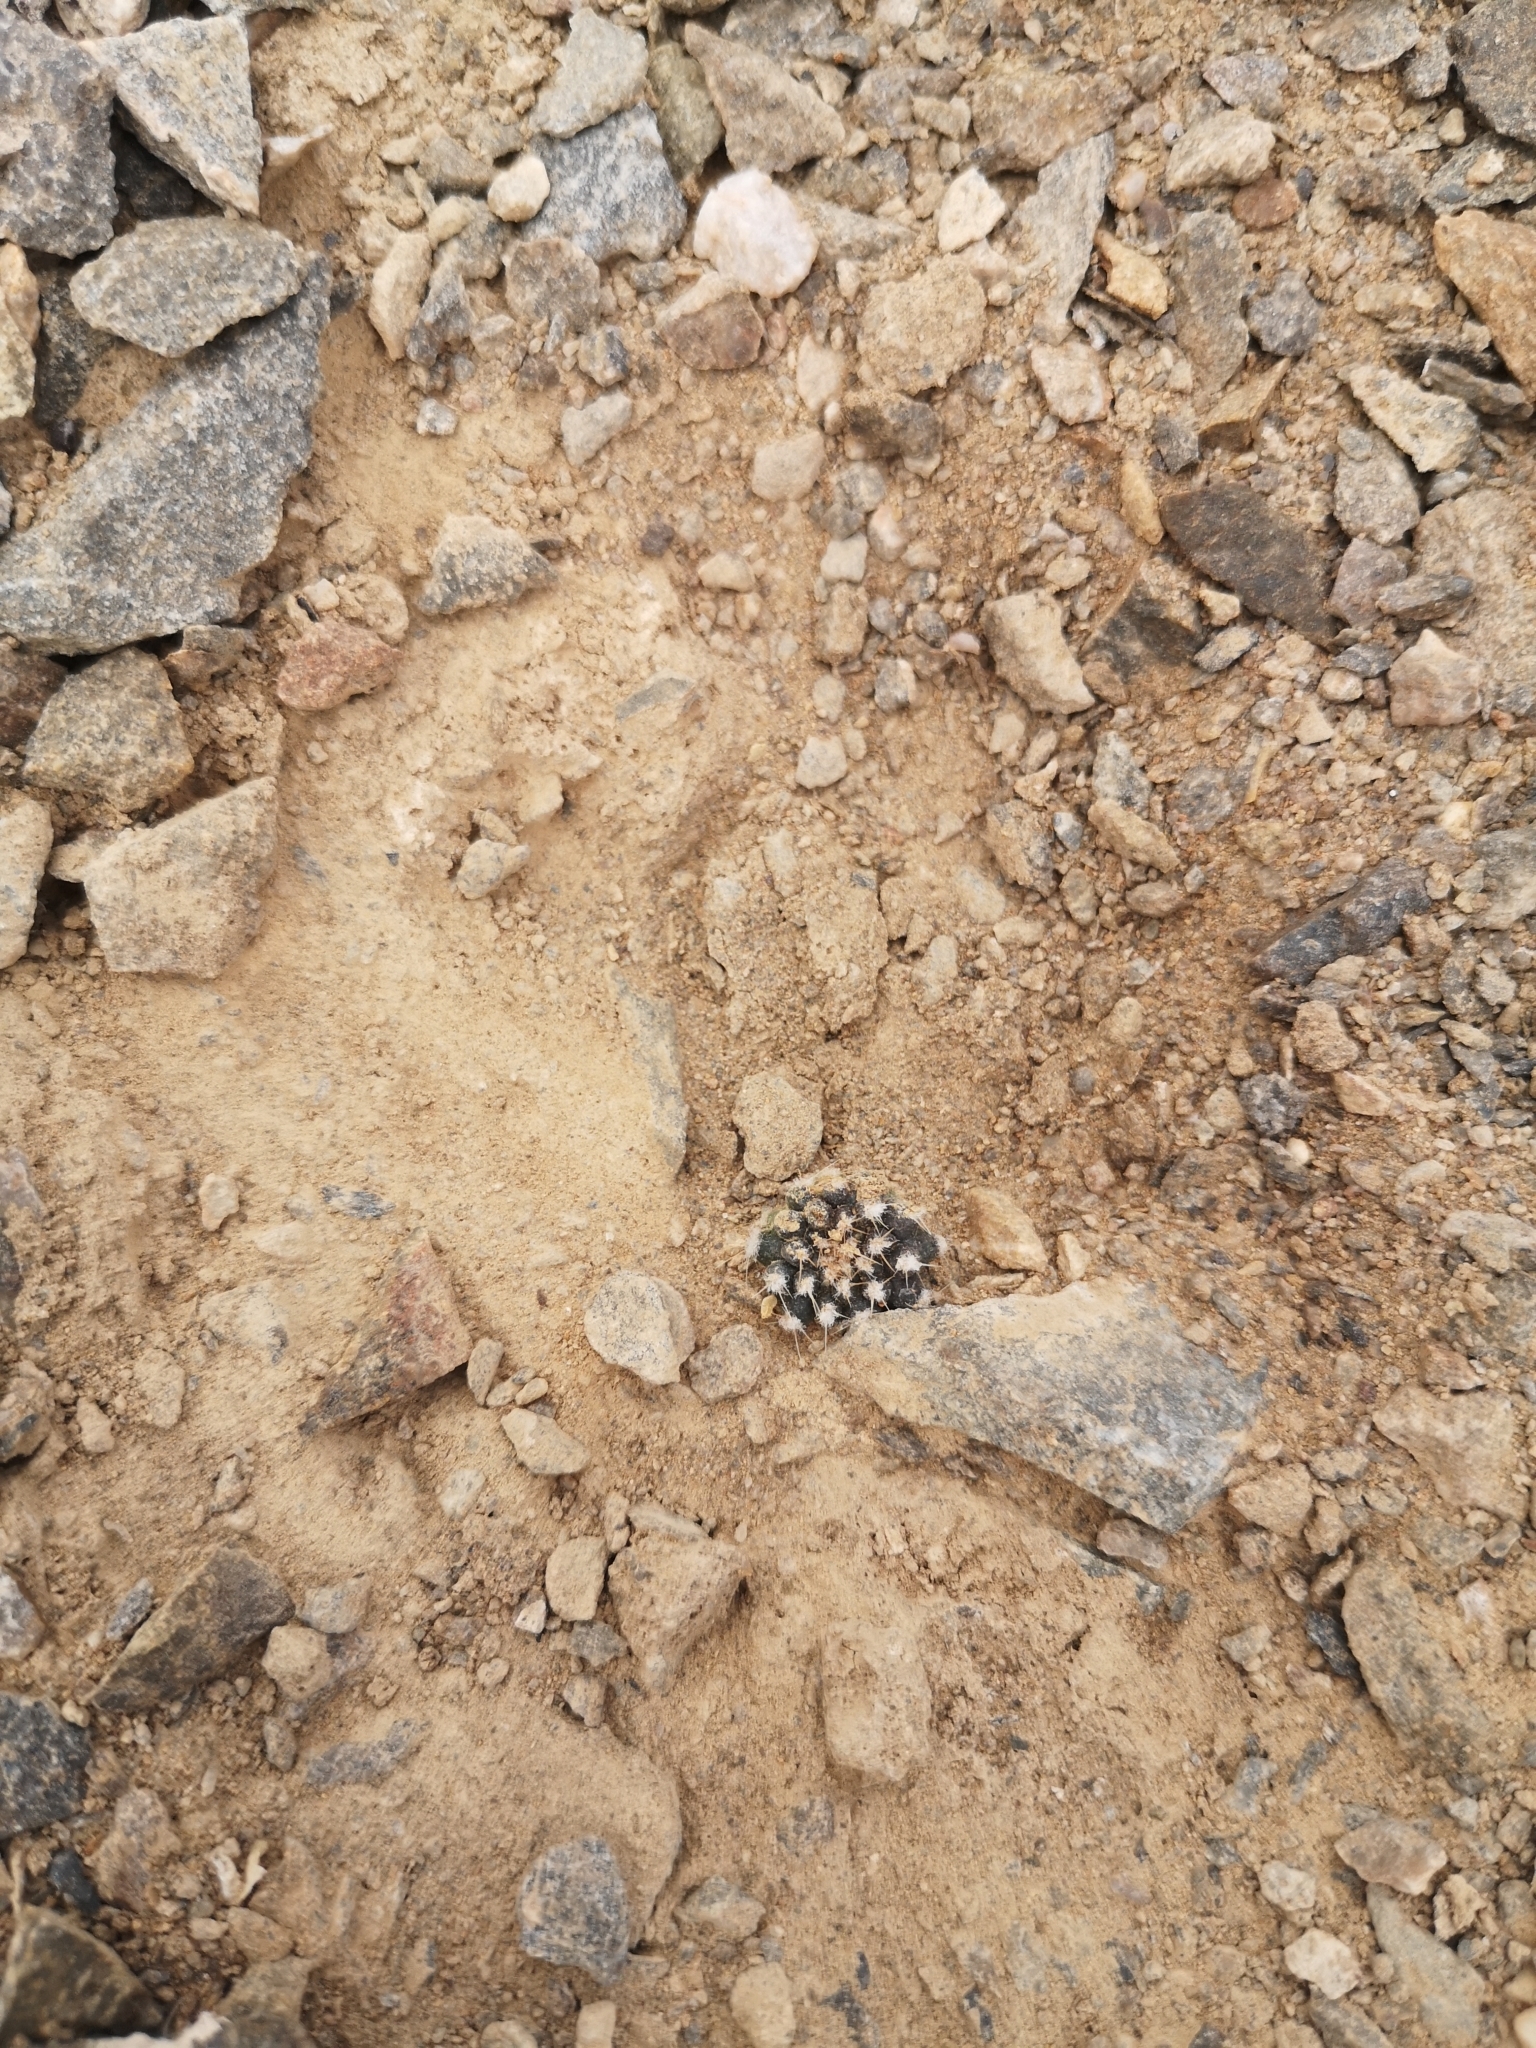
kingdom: Plantae
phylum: Tracheophyta
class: Magnoliopsida
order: Caryophyllales
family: Cactaceae
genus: Eriosyce
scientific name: Eriosyce krausii
